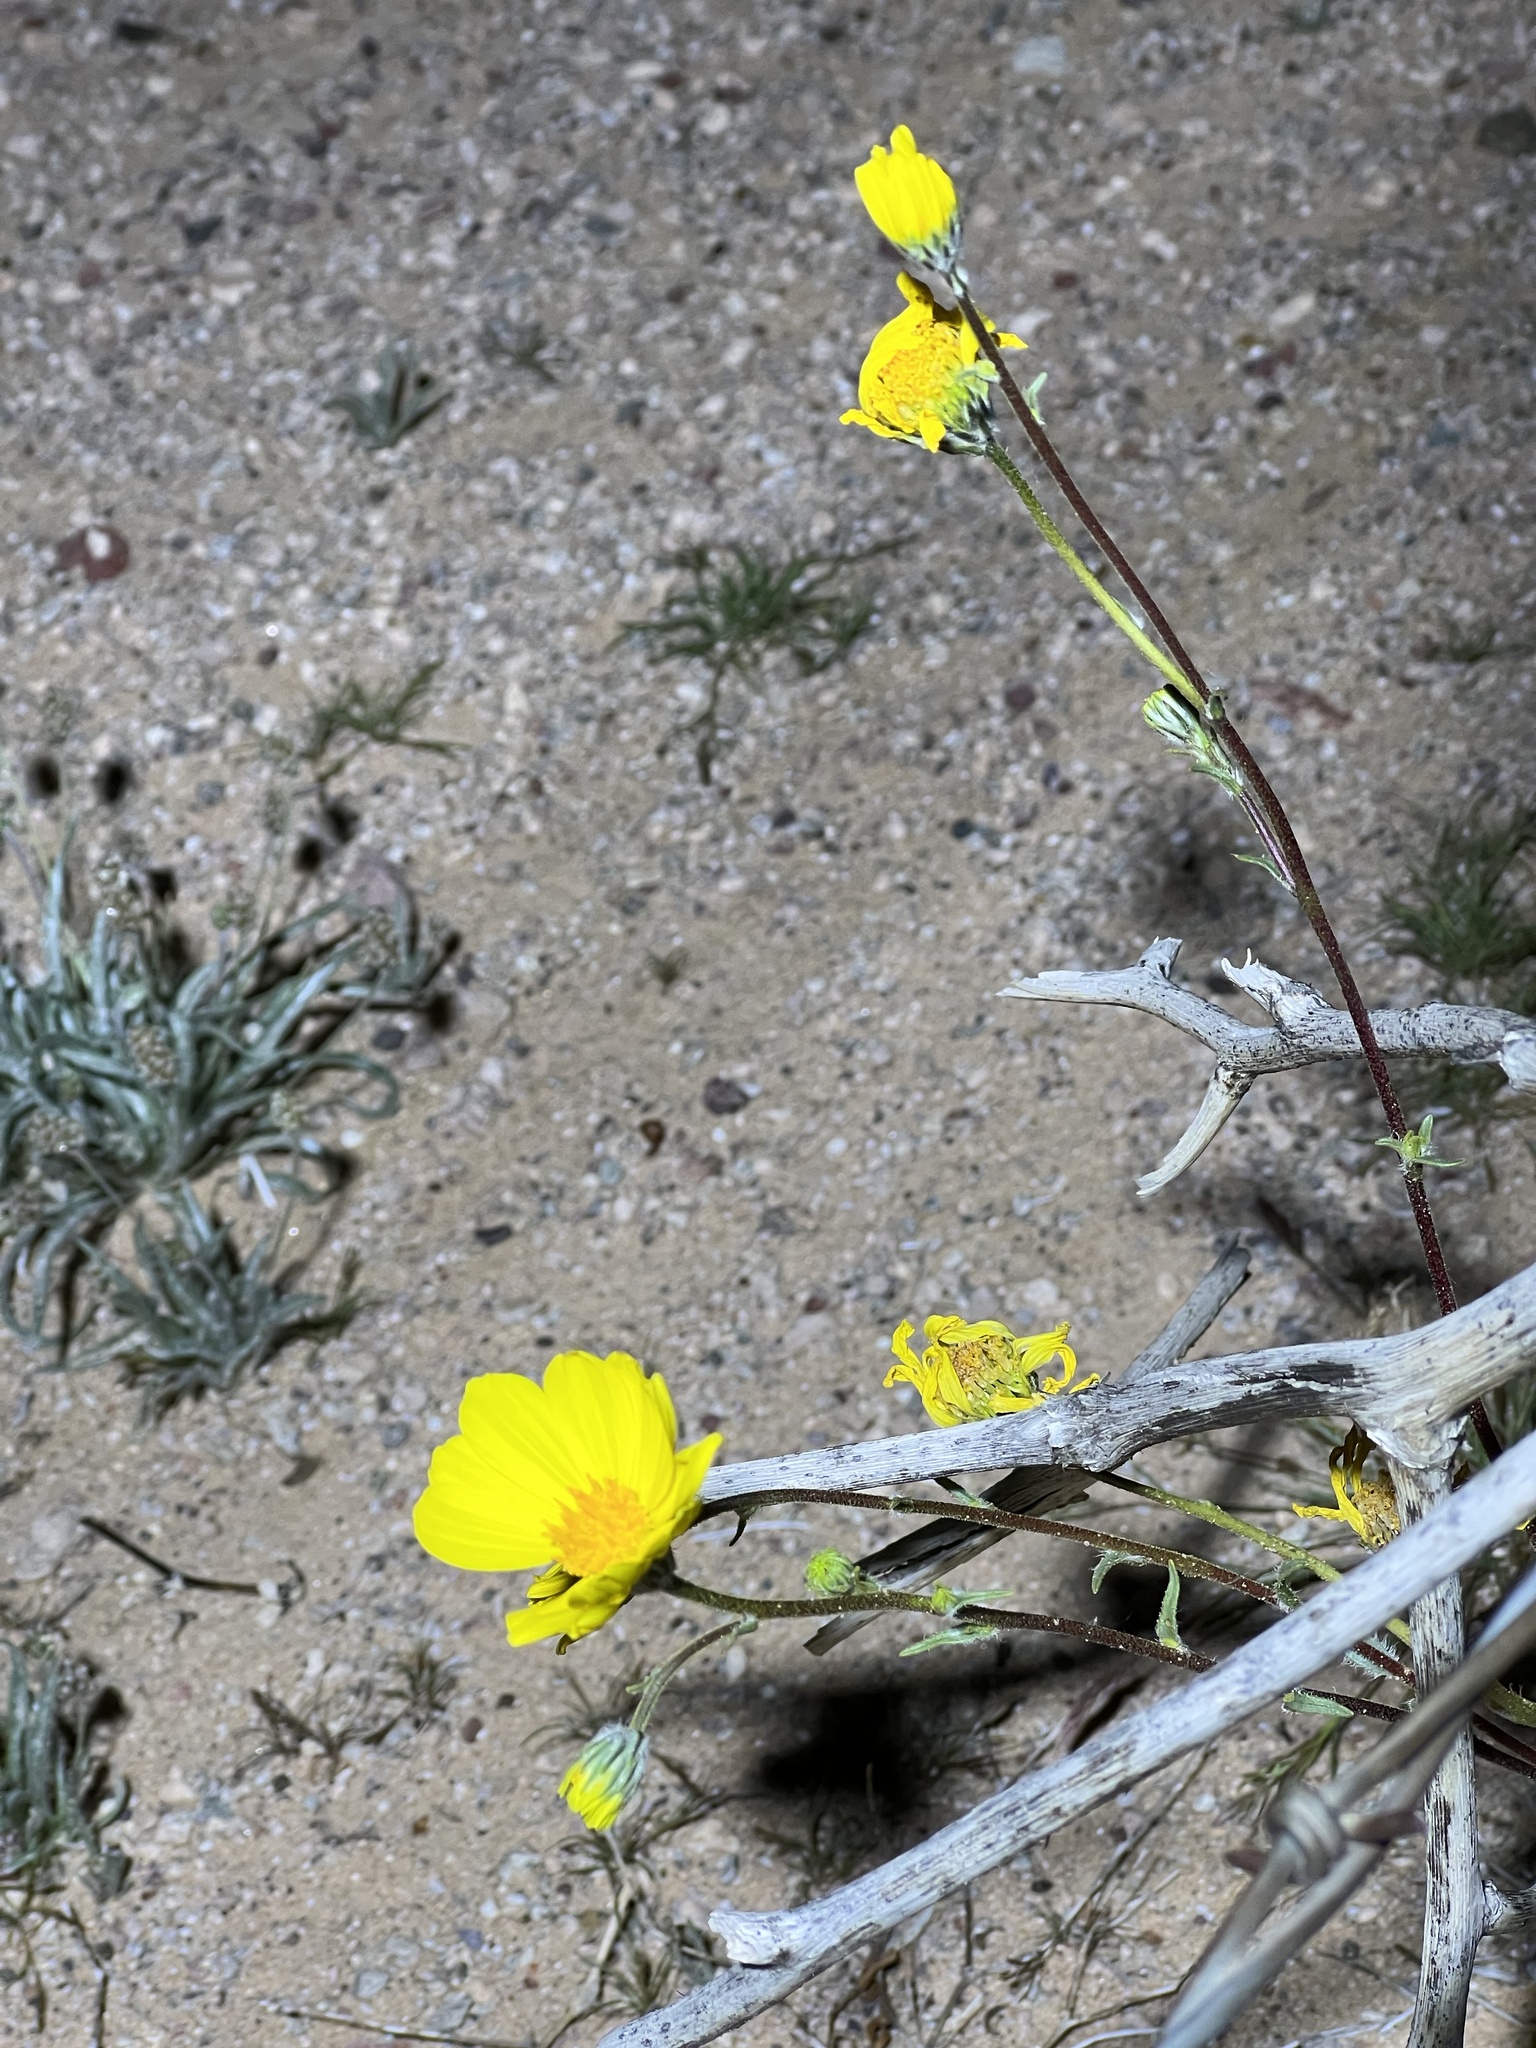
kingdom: Plantae
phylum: Tracheophyta
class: Magnoliopsida
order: Asterales
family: Asteraceae
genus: Geraea
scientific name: Geraea canescens
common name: Desert-gold
